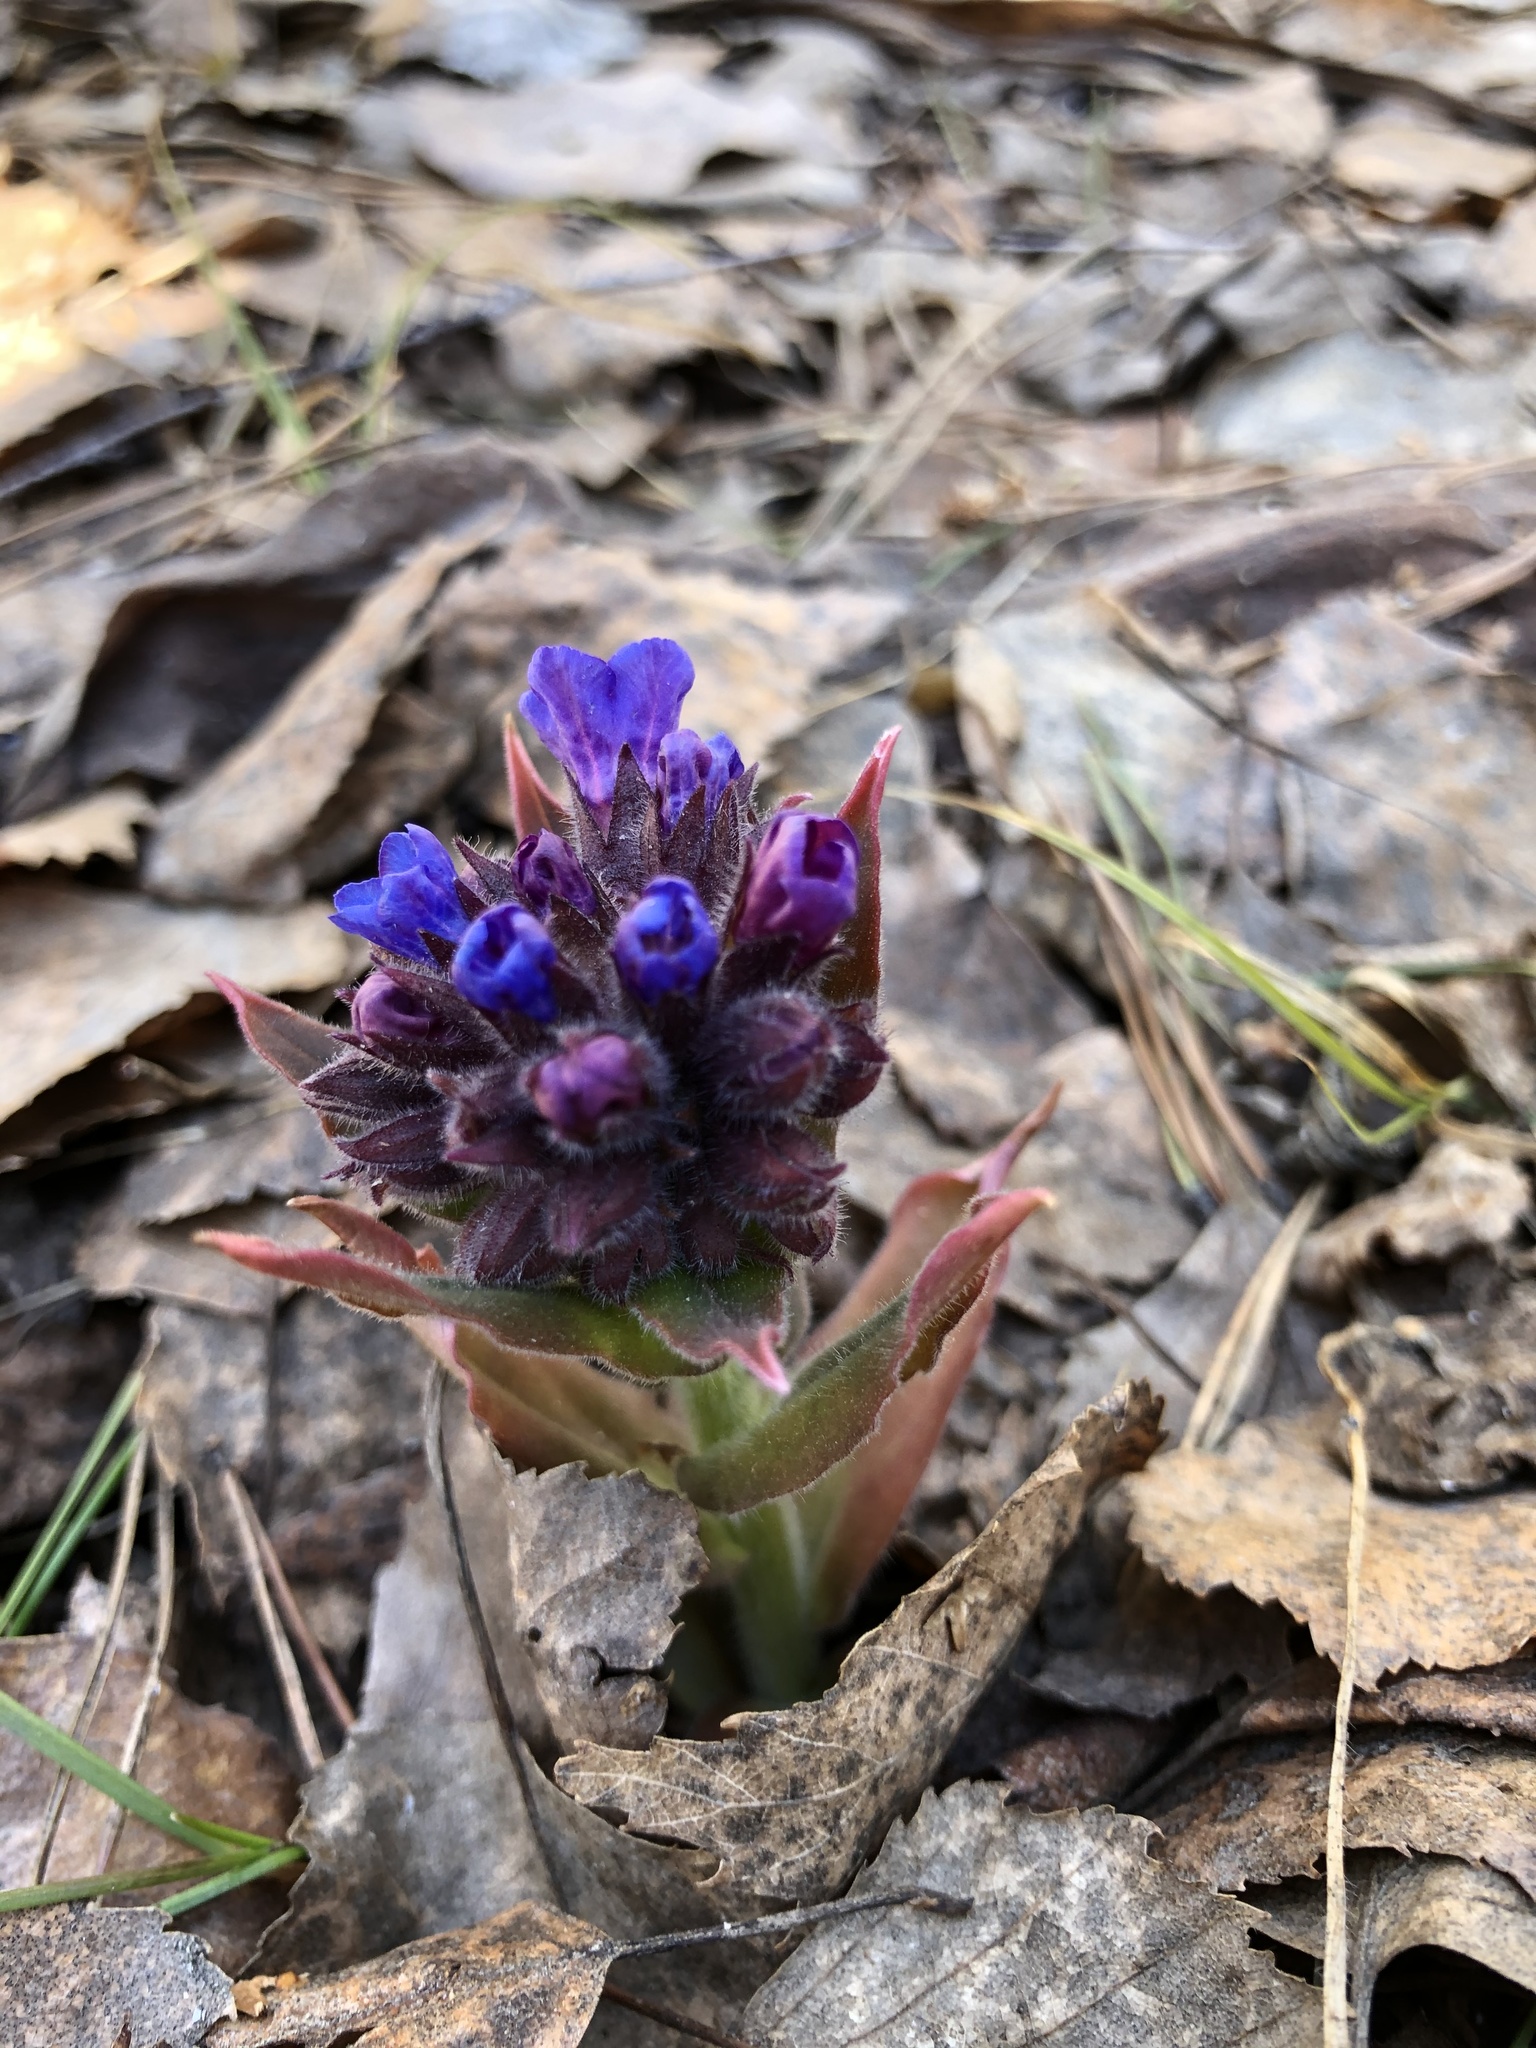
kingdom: Plantae
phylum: Tracheophyta
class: Magnoliopsida
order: Boraginales
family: Boraginaceae
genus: Pulmonaria
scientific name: Pulmonaria mollis
